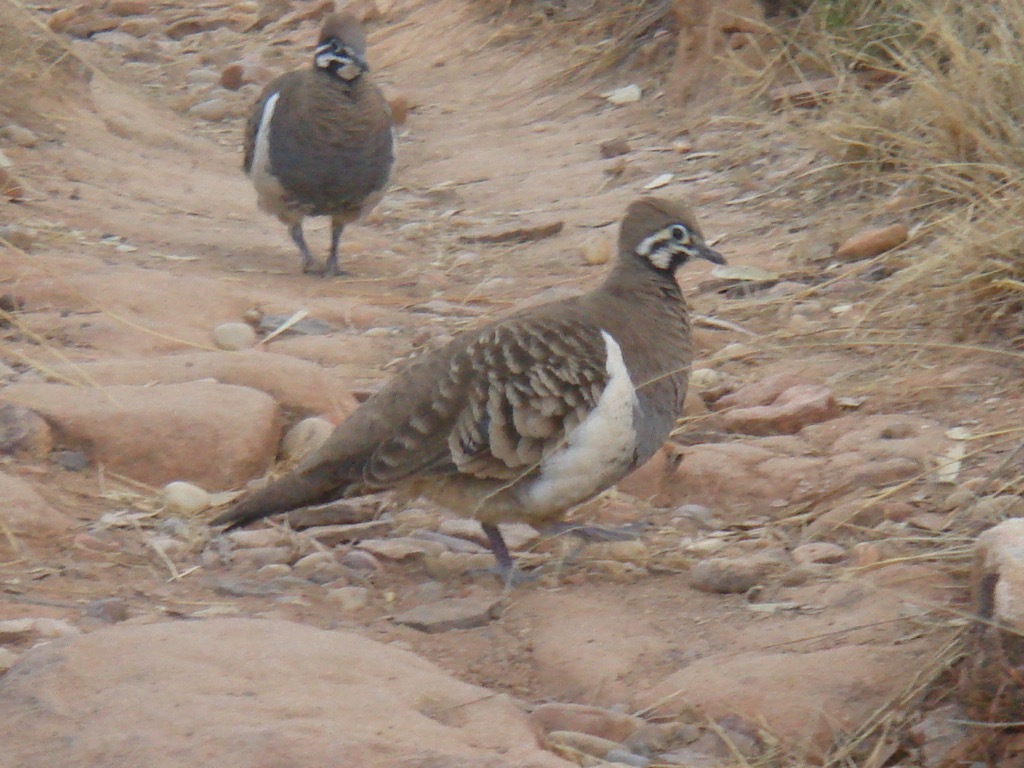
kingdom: Animalia
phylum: Chordata
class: Aves
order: Columbiformes
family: Columbidae
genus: Geophaps
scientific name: Geophaps scripta
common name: Squatter pigeon
